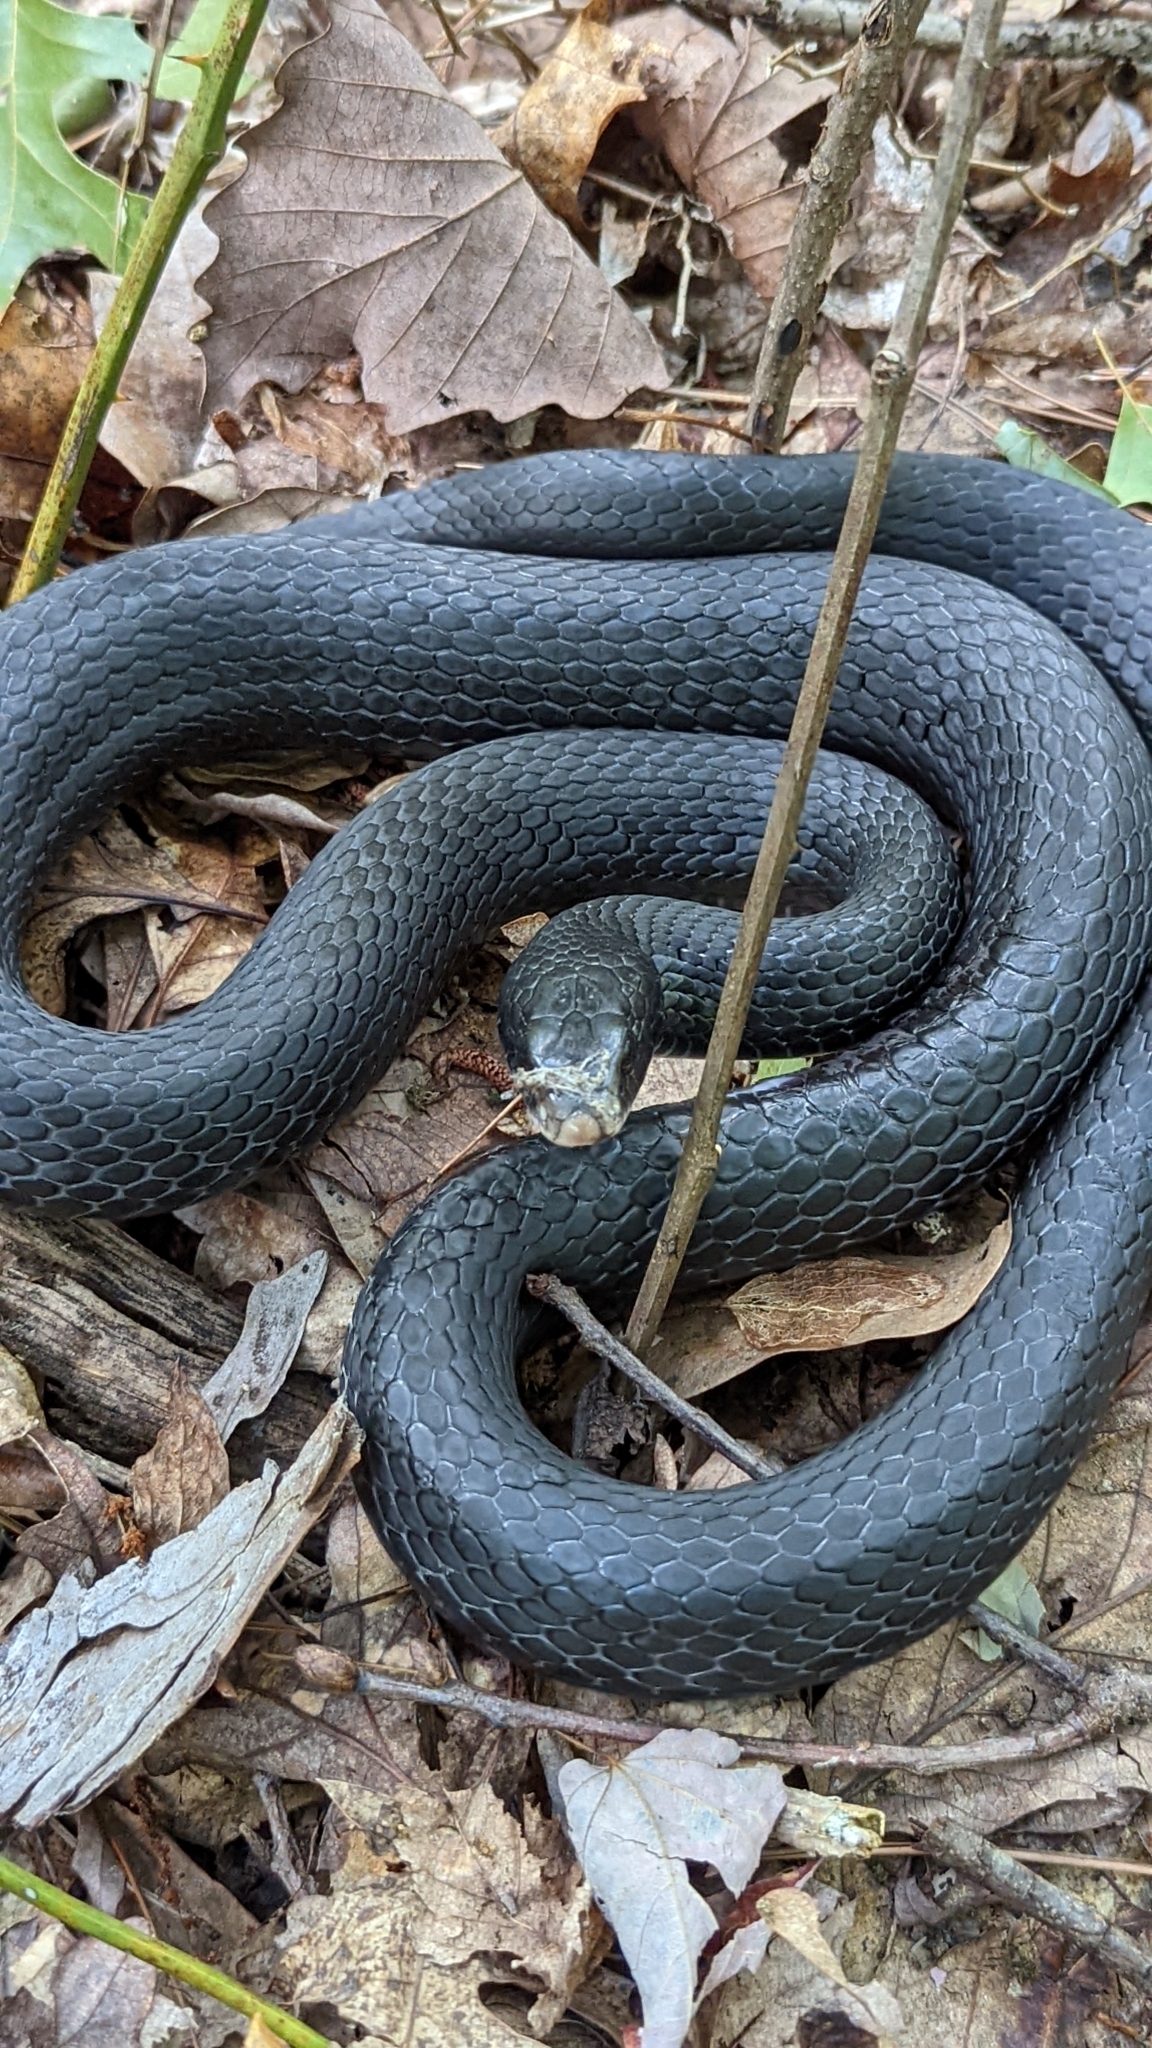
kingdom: Animalia
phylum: Chordata
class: Squamata
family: Colubridae
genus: Coluber
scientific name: Coluber constrictor
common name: Eastern racer
